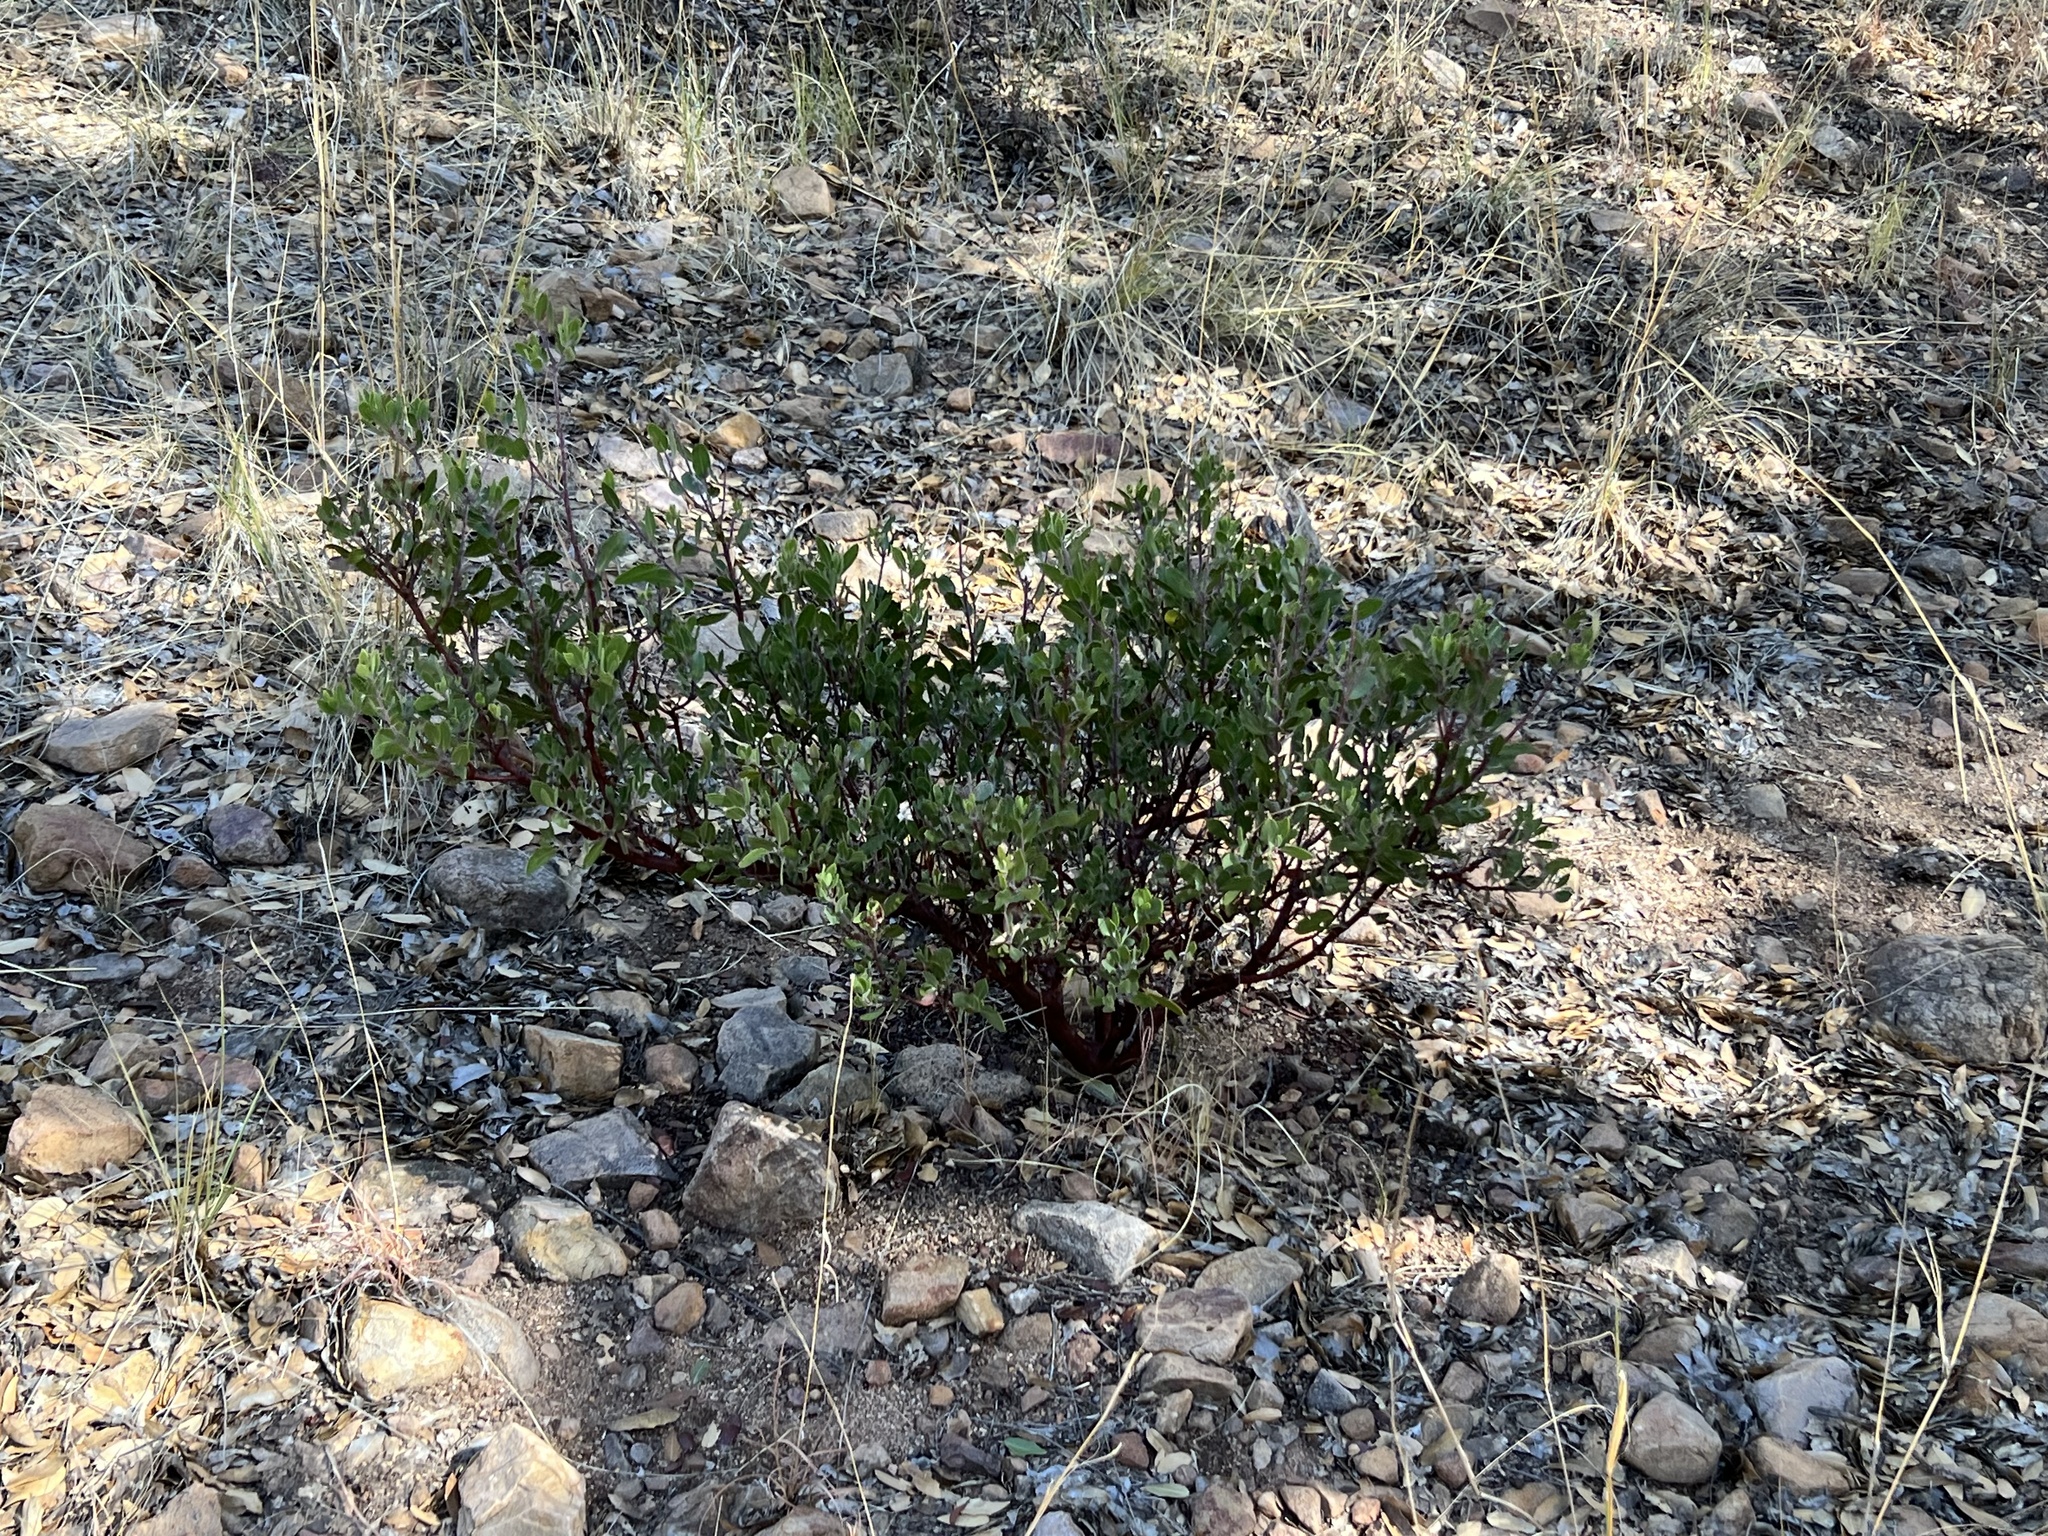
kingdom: Plantae
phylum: Tracheophyta
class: Magnoliopsida
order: Ericales
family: Ericaceae
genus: Arctostaphylos
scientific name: Arctostaphylos pungens
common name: Mexican manzanita
